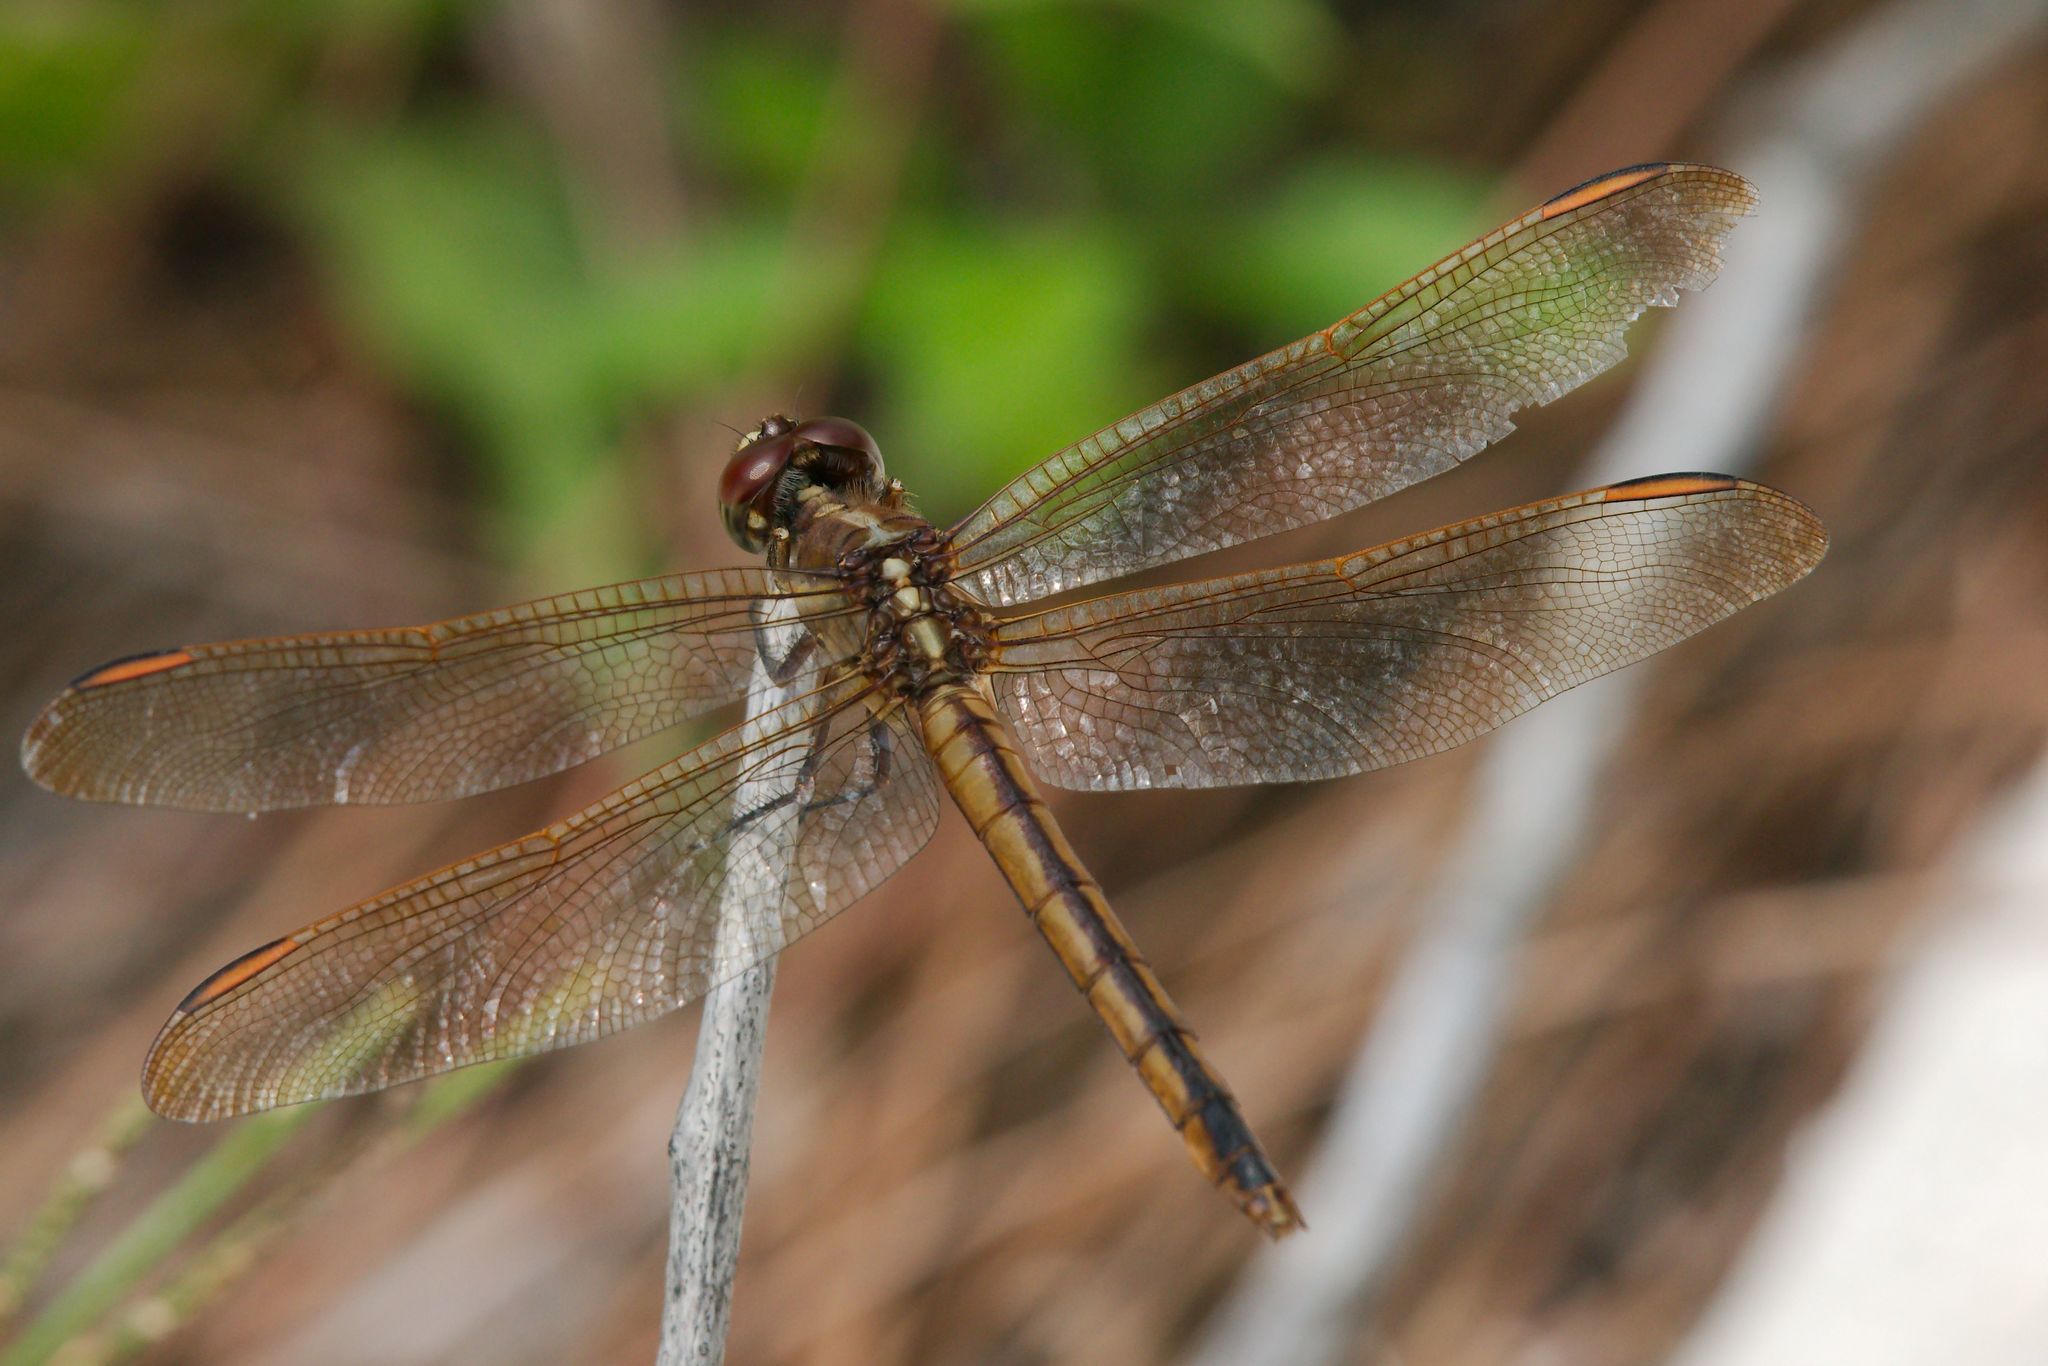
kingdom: Animalia
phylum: Arthropoda
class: Insecta
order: Odonata
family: Libellulidae
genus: Libellula
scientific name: Libellula auripennis
